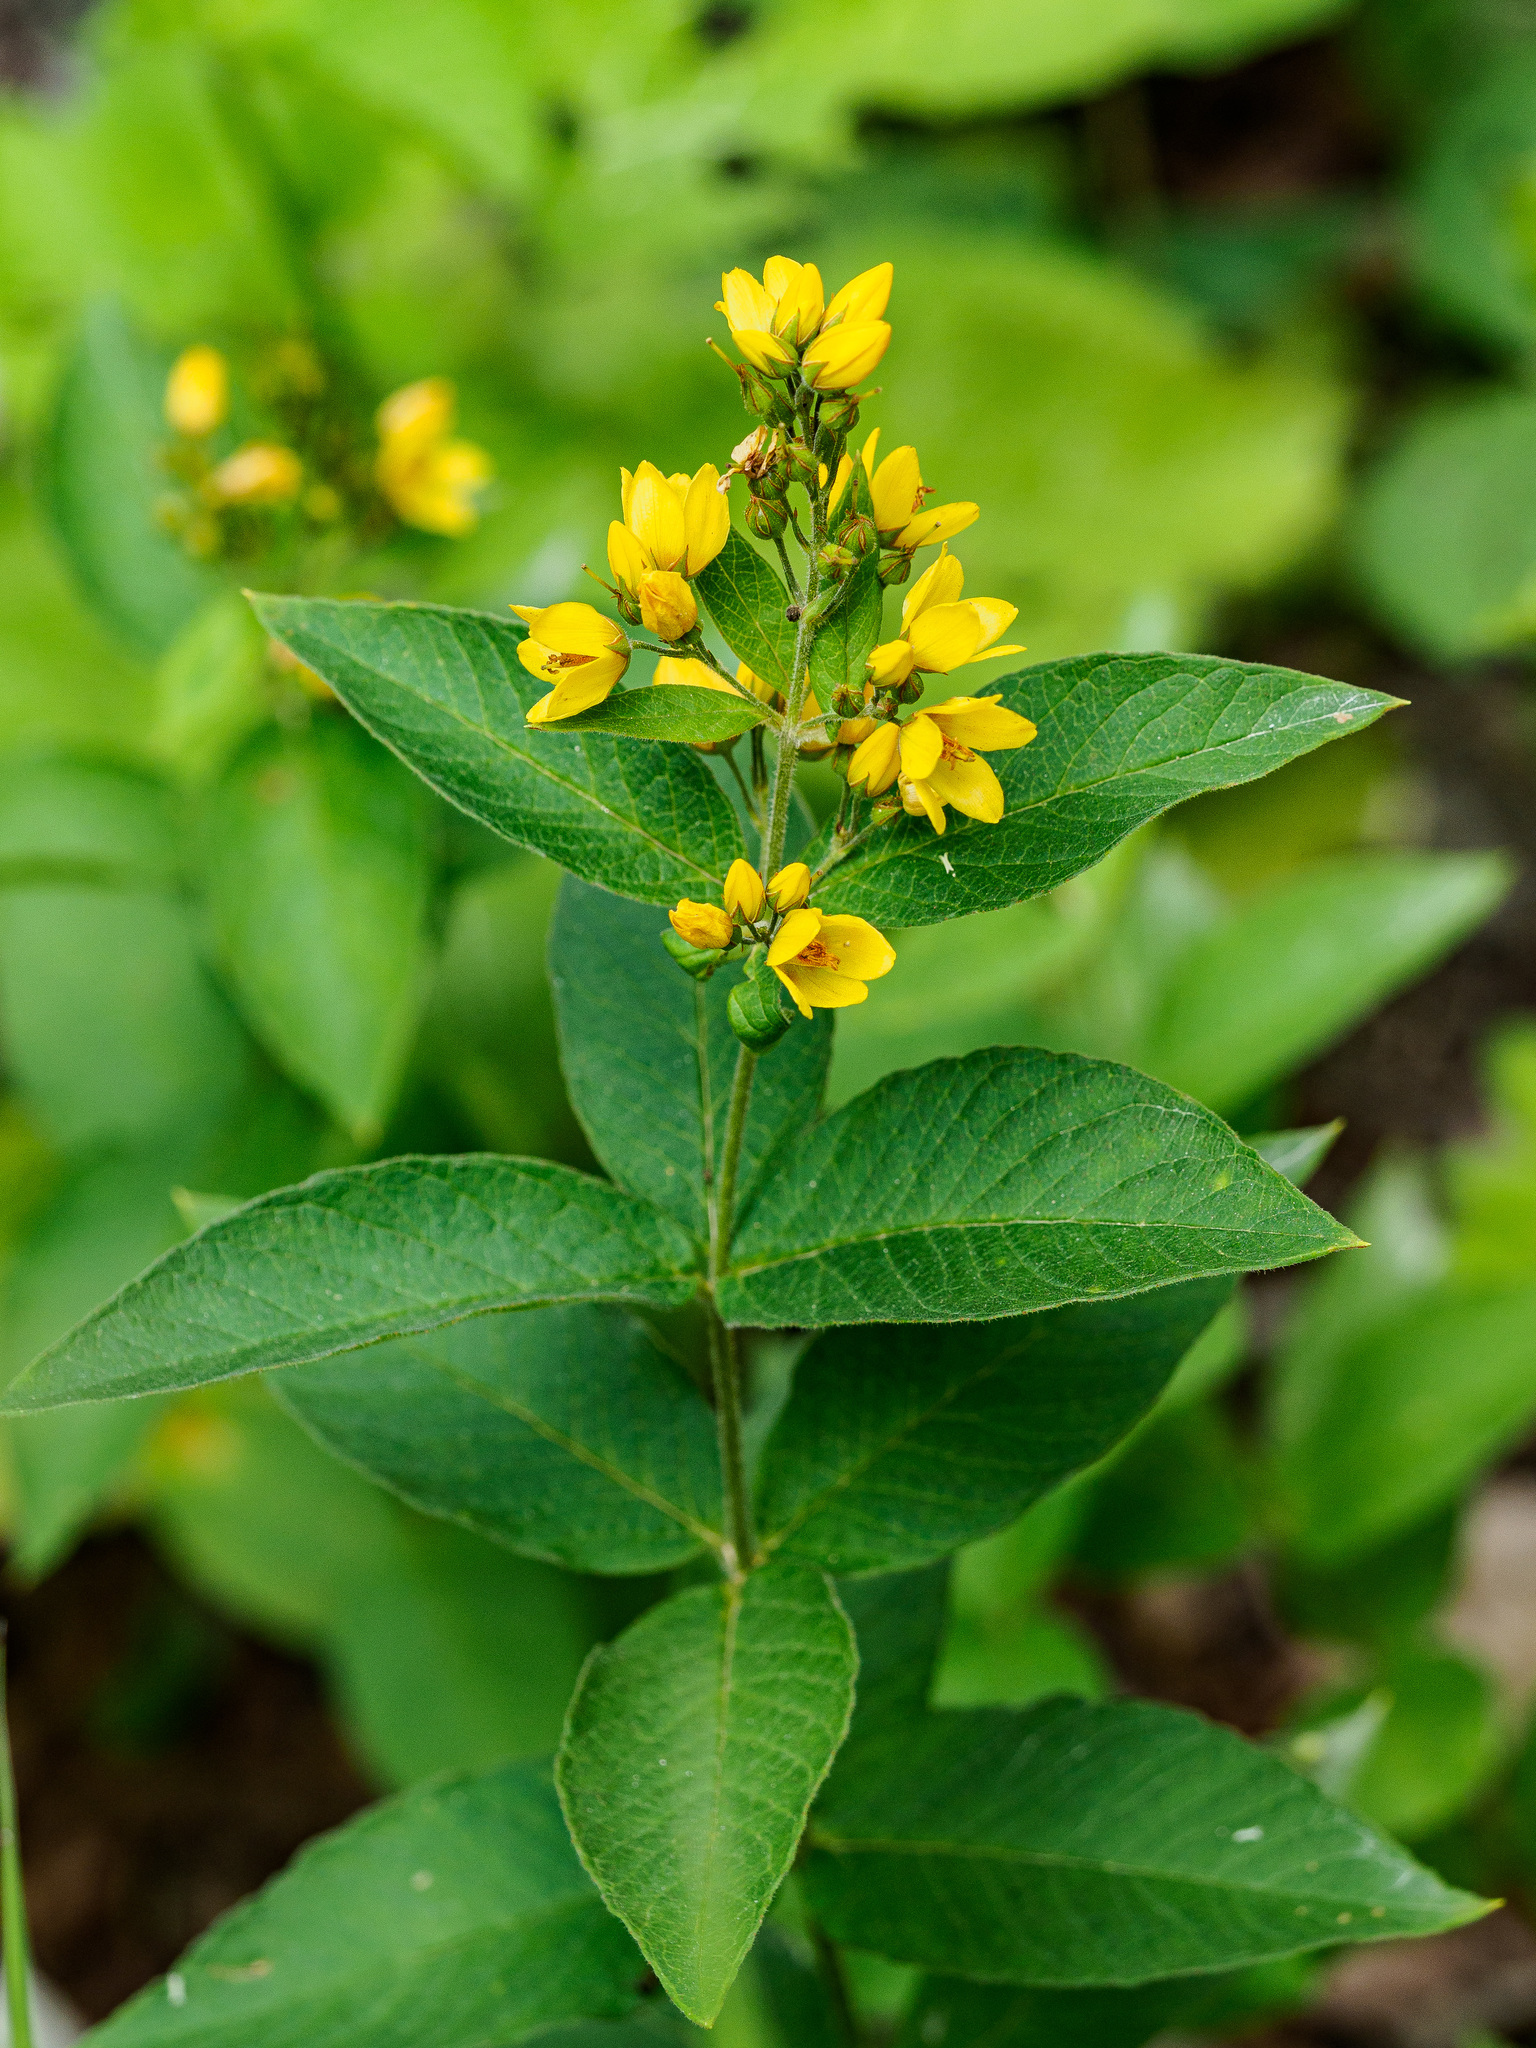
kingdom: Plantae
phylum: Tracheophyta
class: Magnoliopsida
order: Ericales
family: Primulaceae
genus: Lysimachia
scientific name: Lysimachia vulgaris
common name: Yellow loosestrife
